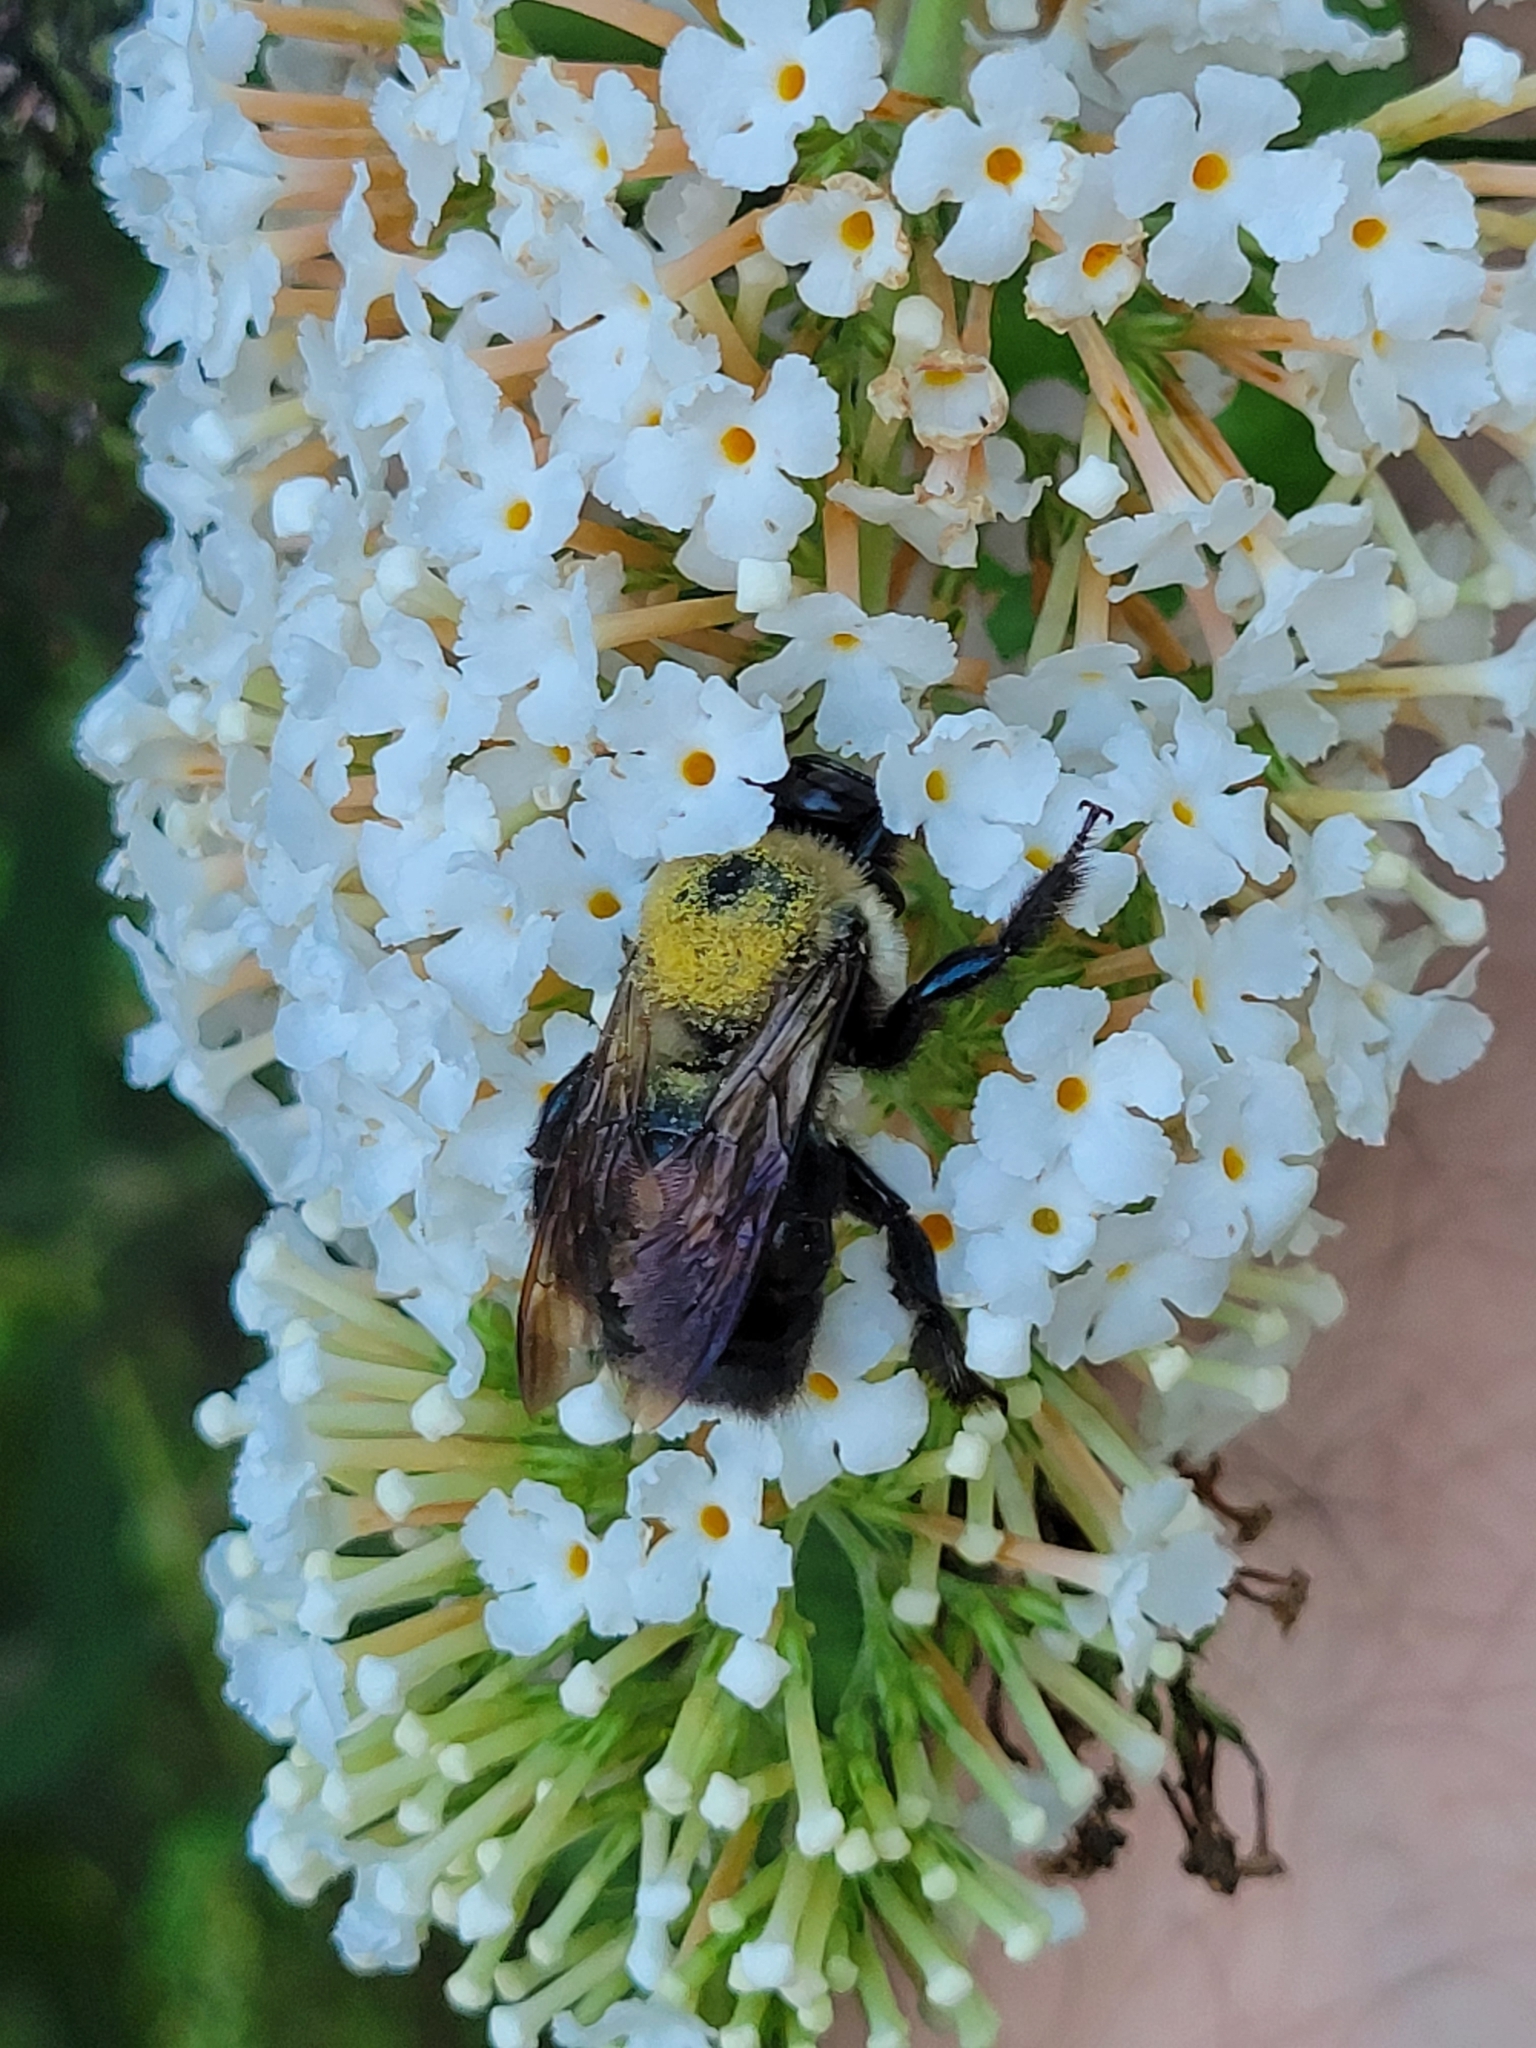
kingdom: Animalia
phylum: Arthropoda
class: Insecta
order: Hymenoptera
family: Apidae
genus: Xylocopa
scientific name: Xylocopa virginica
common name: Carpenter bee
